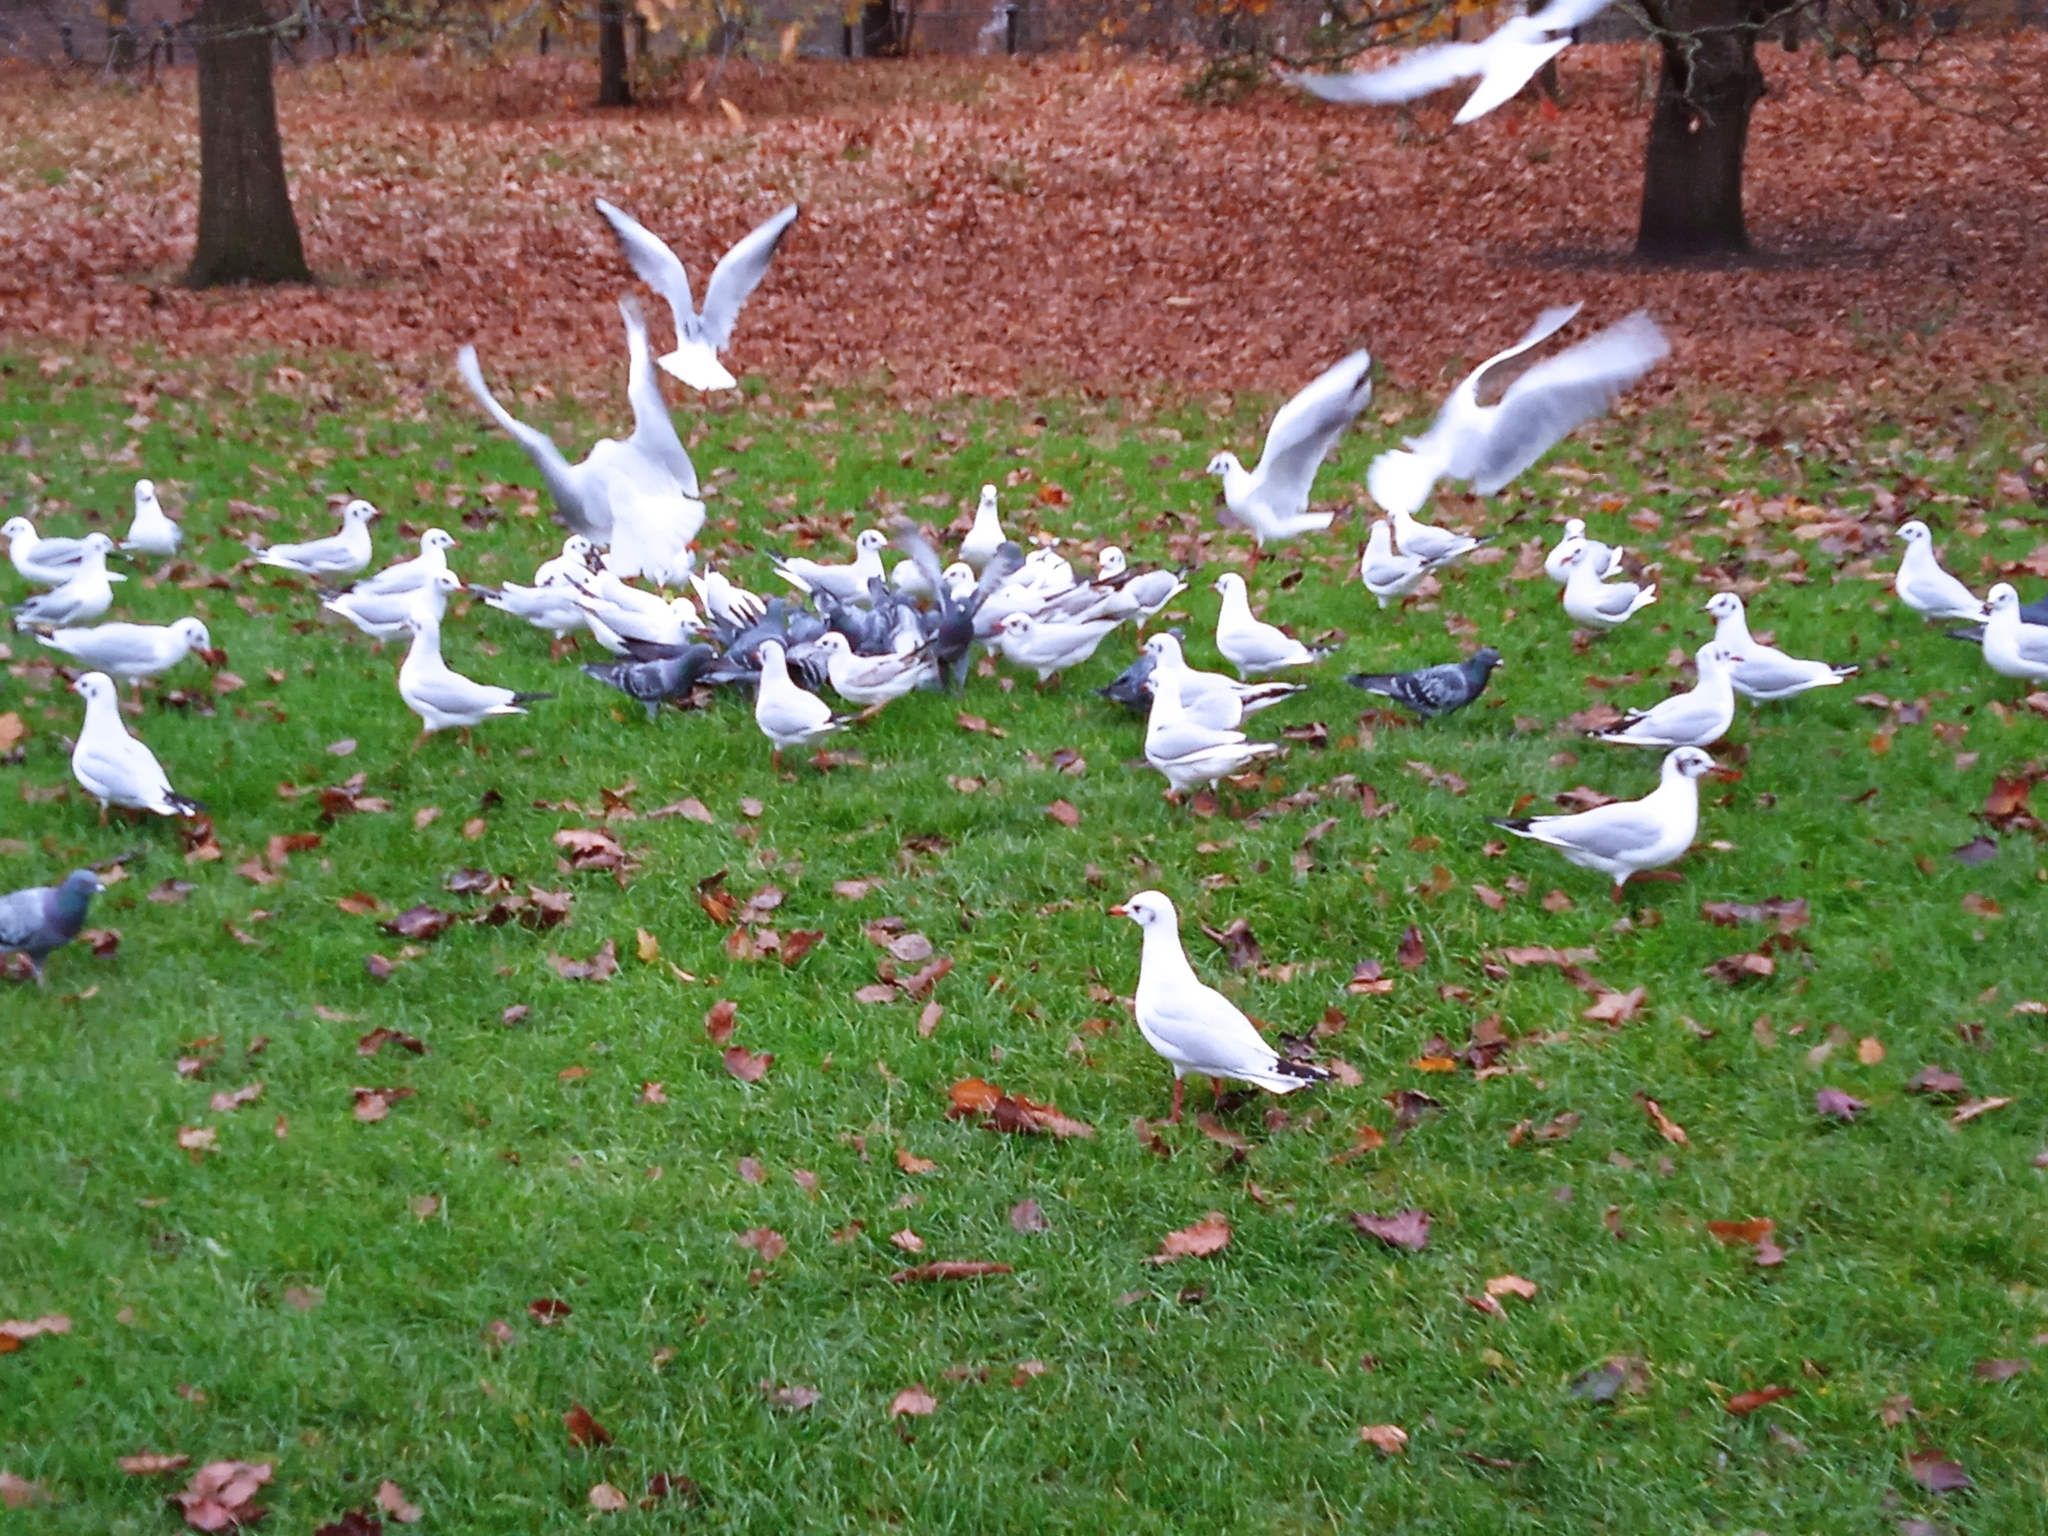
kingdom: Animalia
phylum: Chordata
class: Aves
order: Charadriiformes
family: Laridae
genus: Chroicocephalus
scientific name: Chroicocephalus ridibundus
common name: Black-headed gull
